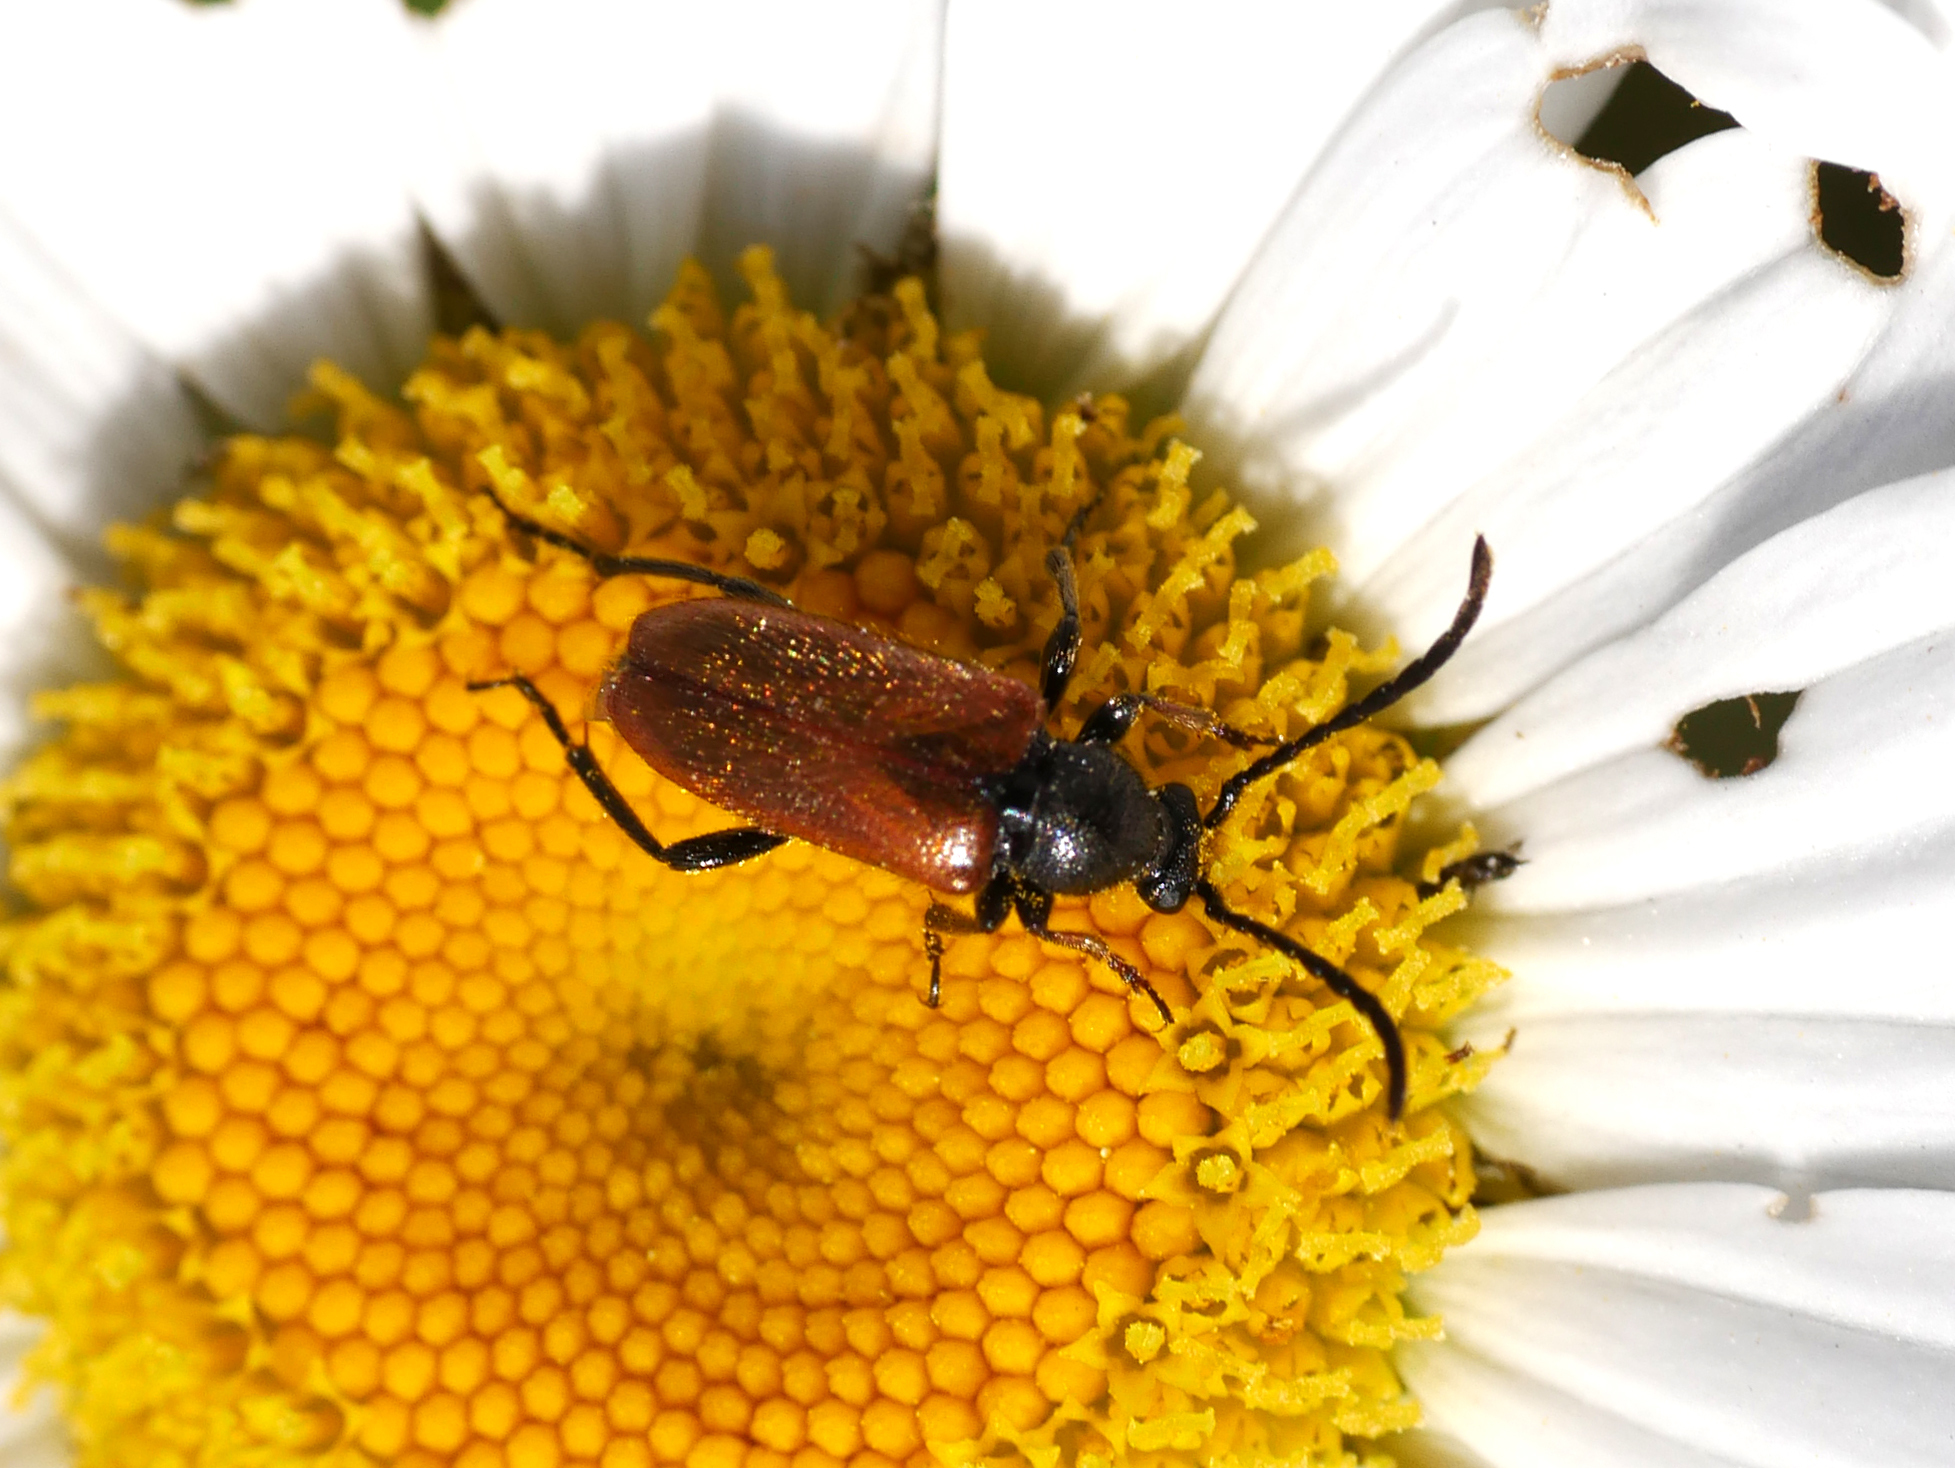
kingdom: Animalia
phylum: Arthropoda
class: Insecta
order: Coleoptera
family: Cerambycidae
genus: Pseudovadonia
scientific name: Pseudovadonia livida
